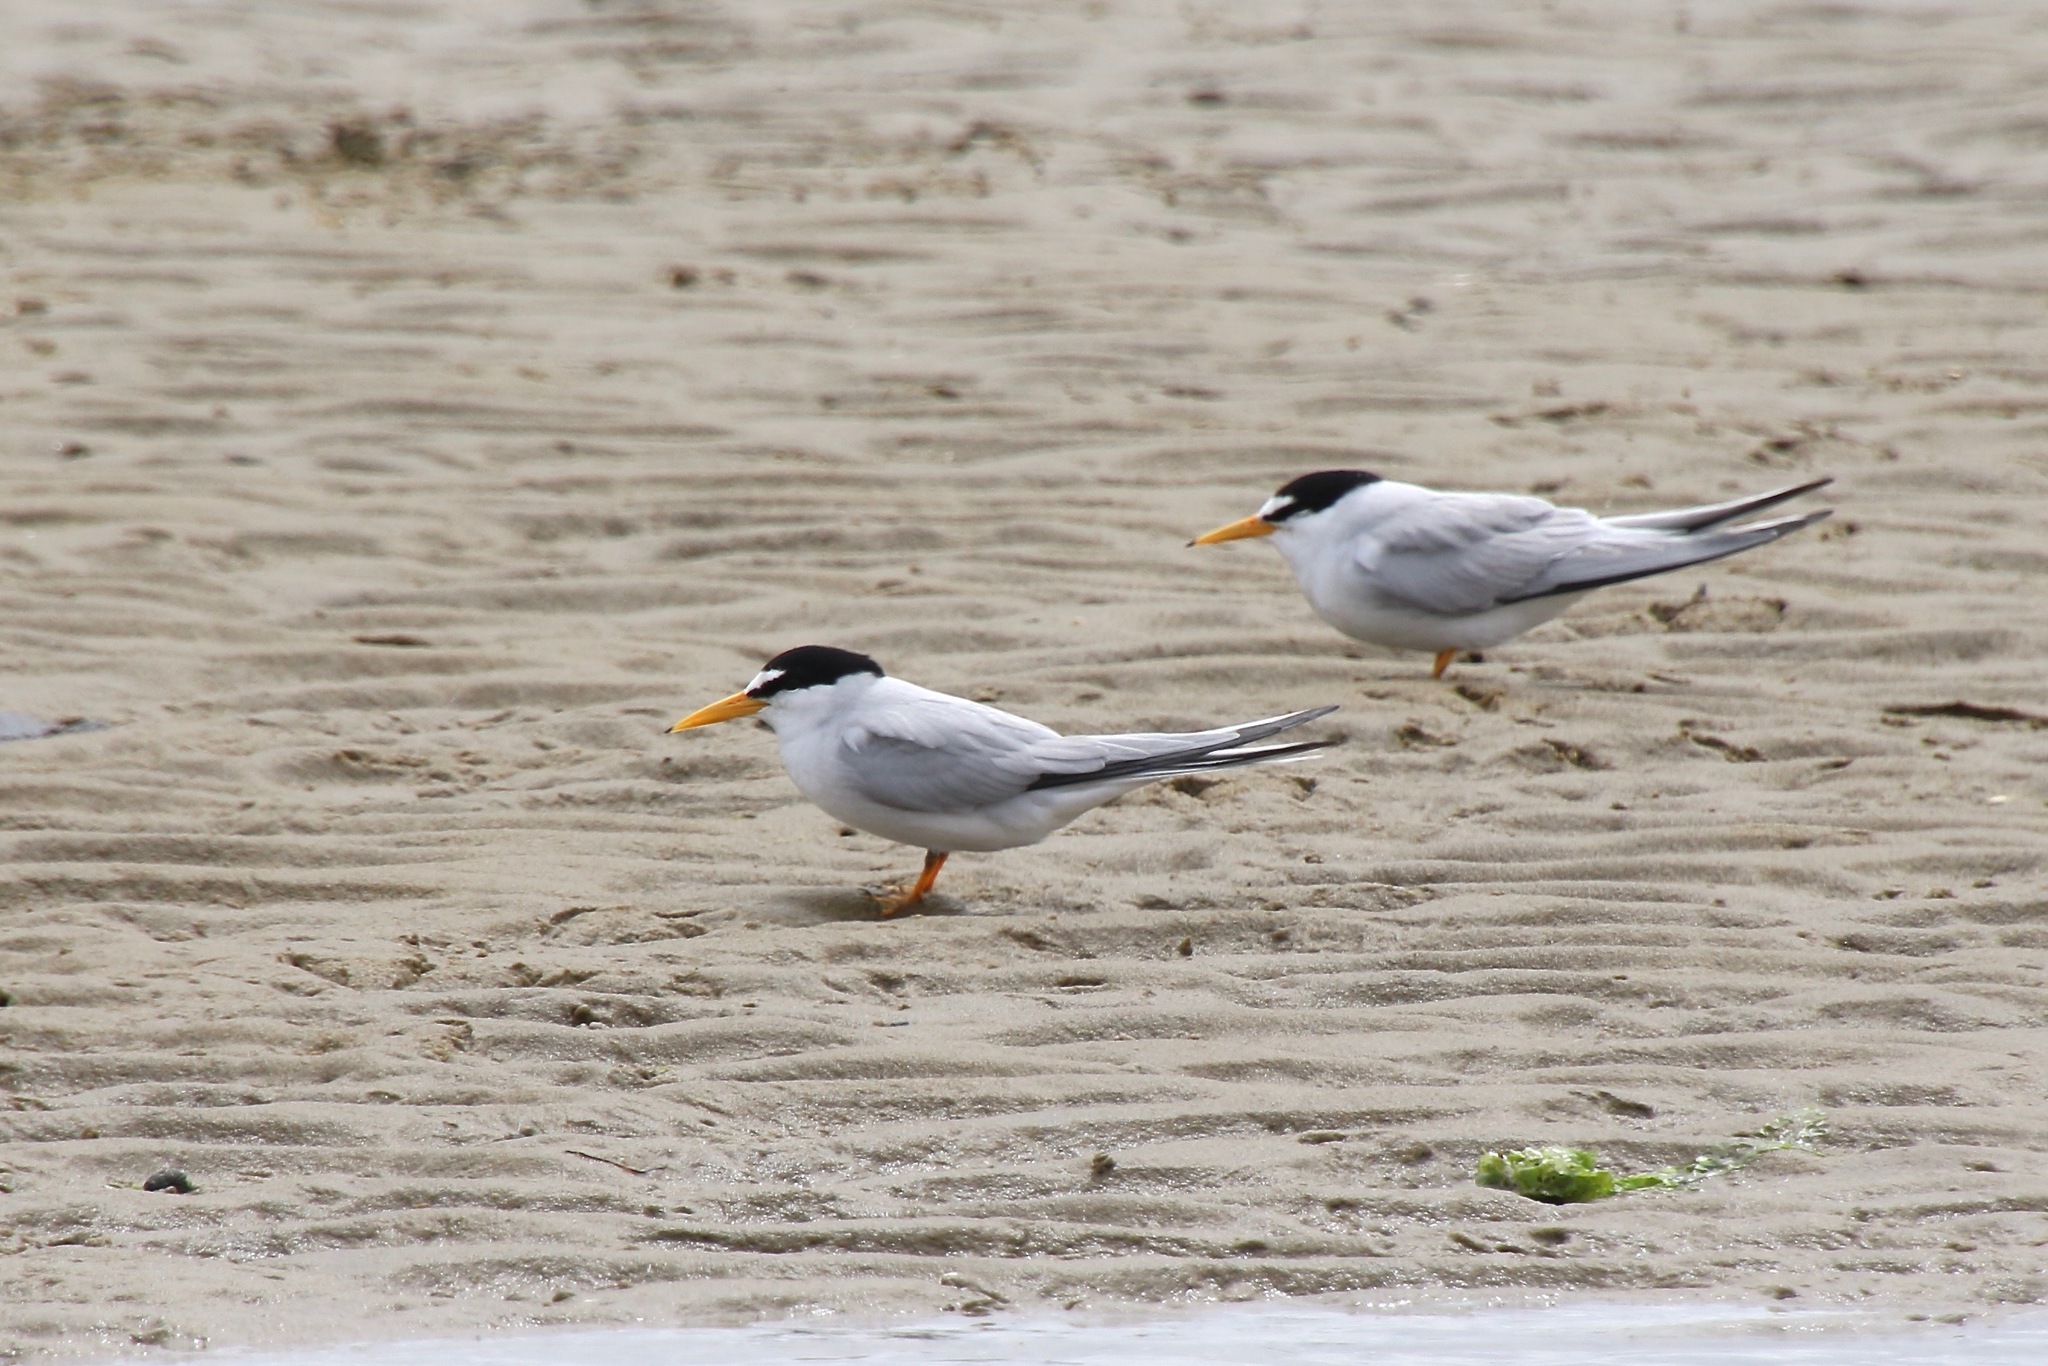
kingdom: Animalia
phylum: Chordata
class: Aves
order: Charadriiformes
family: Laridae
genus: Sternula
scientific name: Sternula antillarum
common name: Least tern
